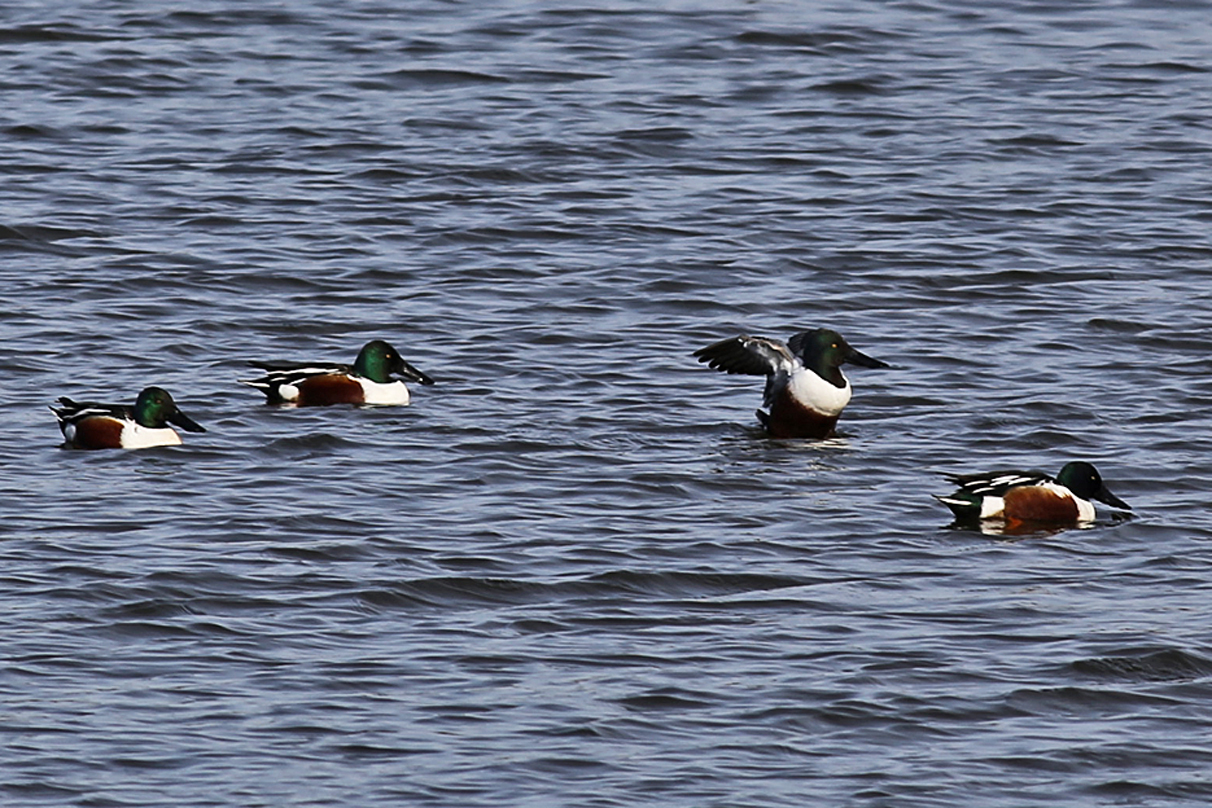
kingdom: Animalia
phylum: Chordata
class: Aves
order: Anseriformes
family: Anatidae
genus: Spatula
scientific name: Spatula clypeata
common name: Northern shoveler
